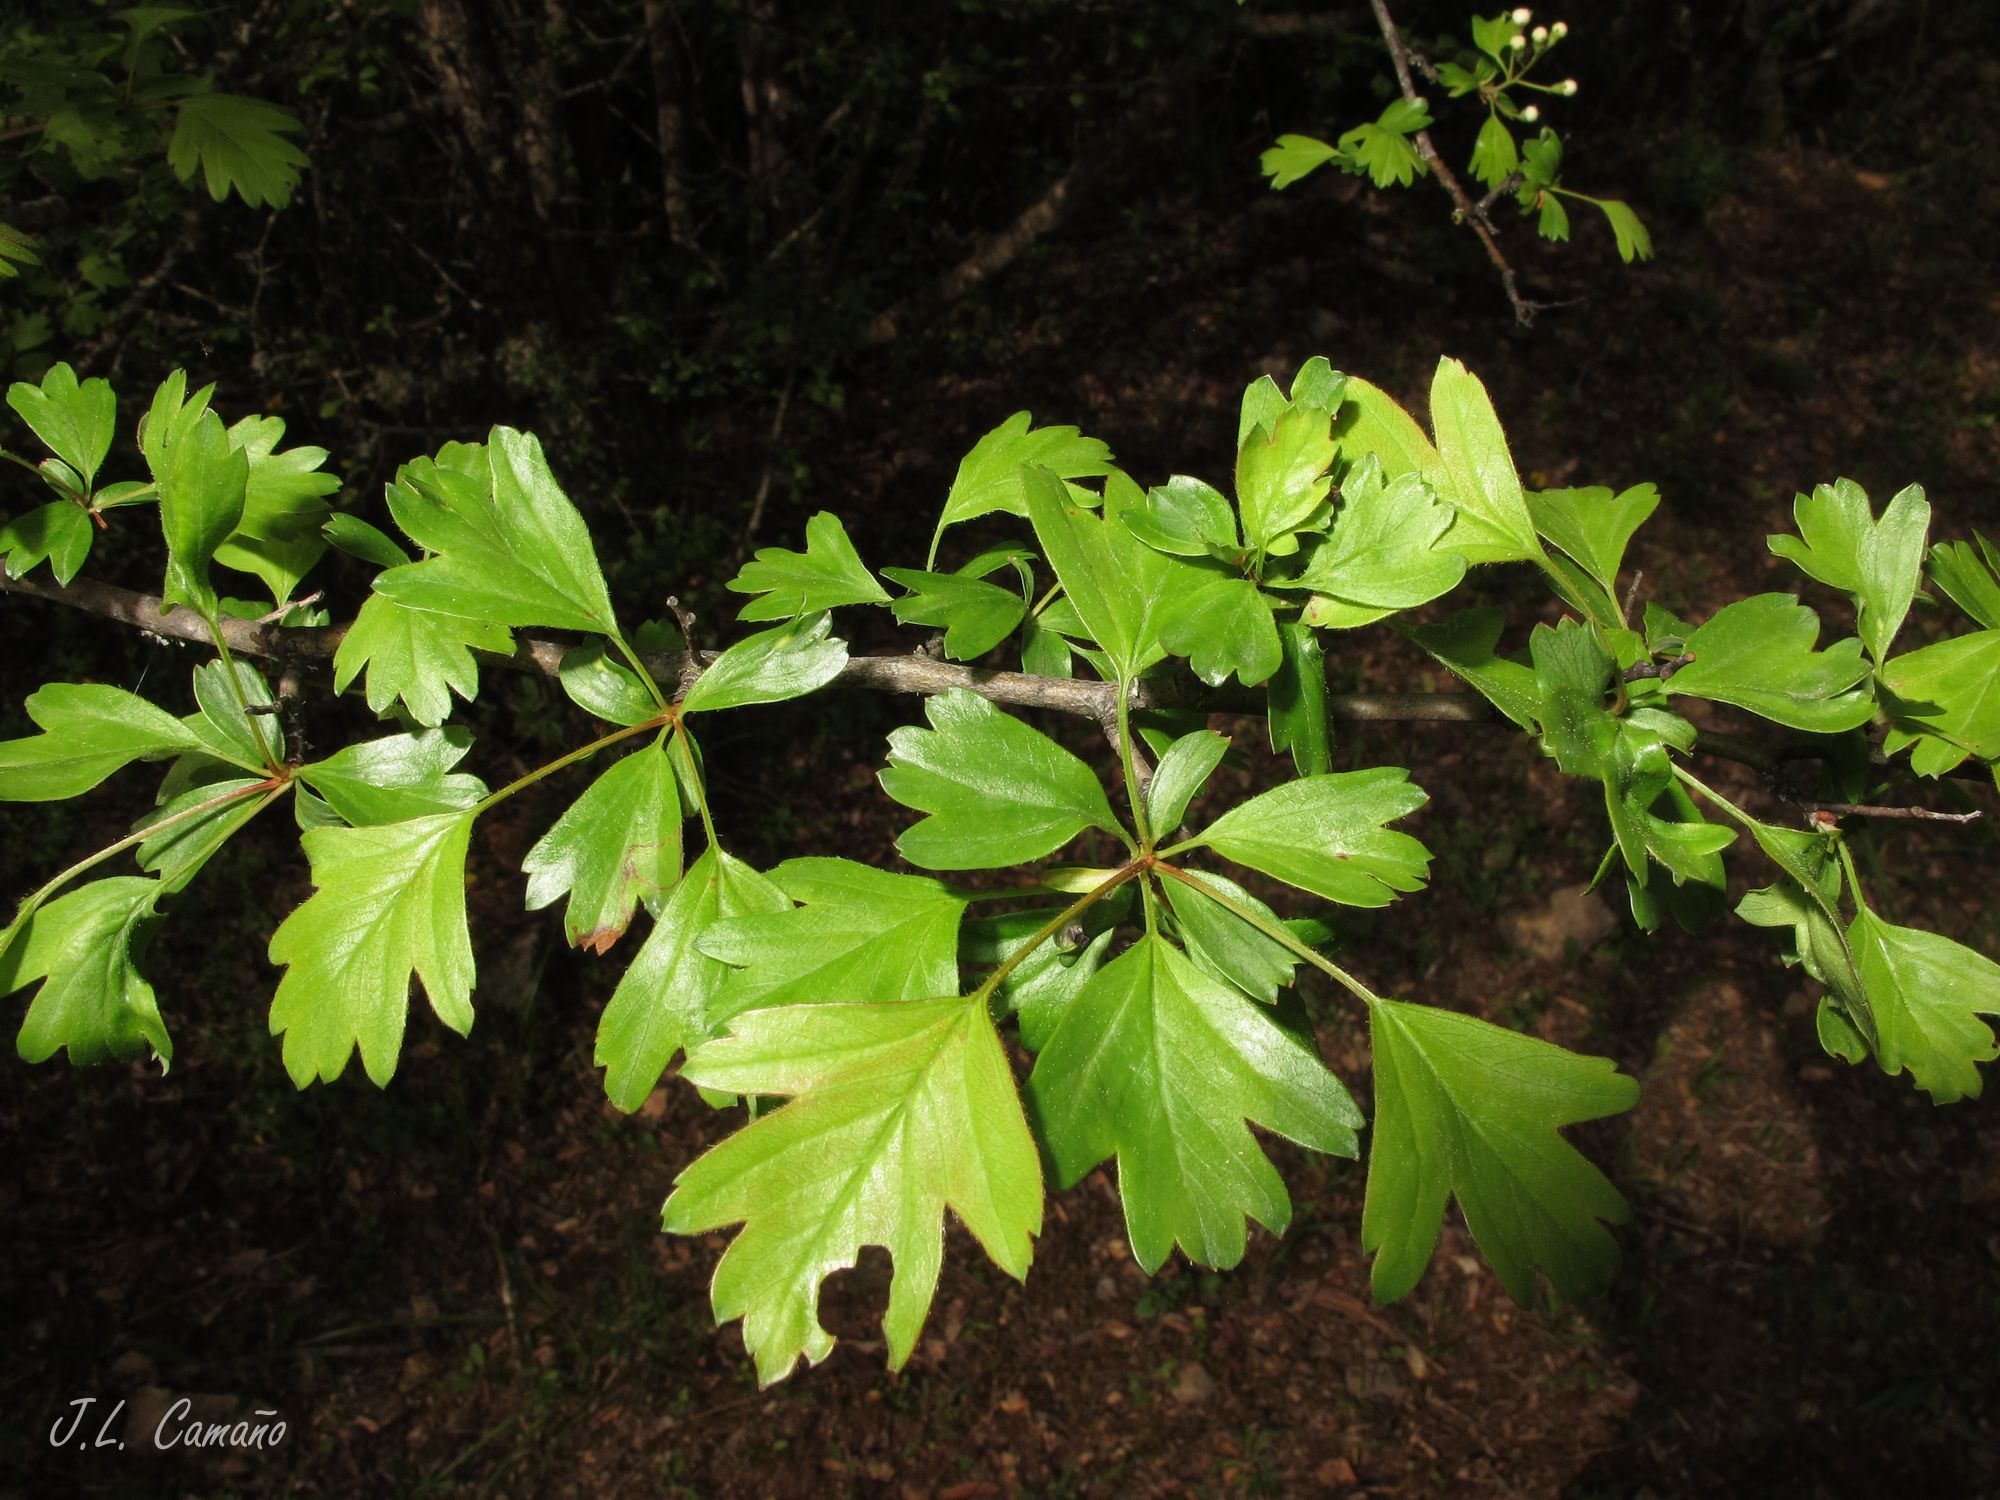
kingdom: Plantae
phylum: Tracheophyta
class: Magnoliopsida
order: Rosales
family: Rosaceae
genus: Crataegus
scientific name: Crataegus monogyna
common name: Hawthorn
